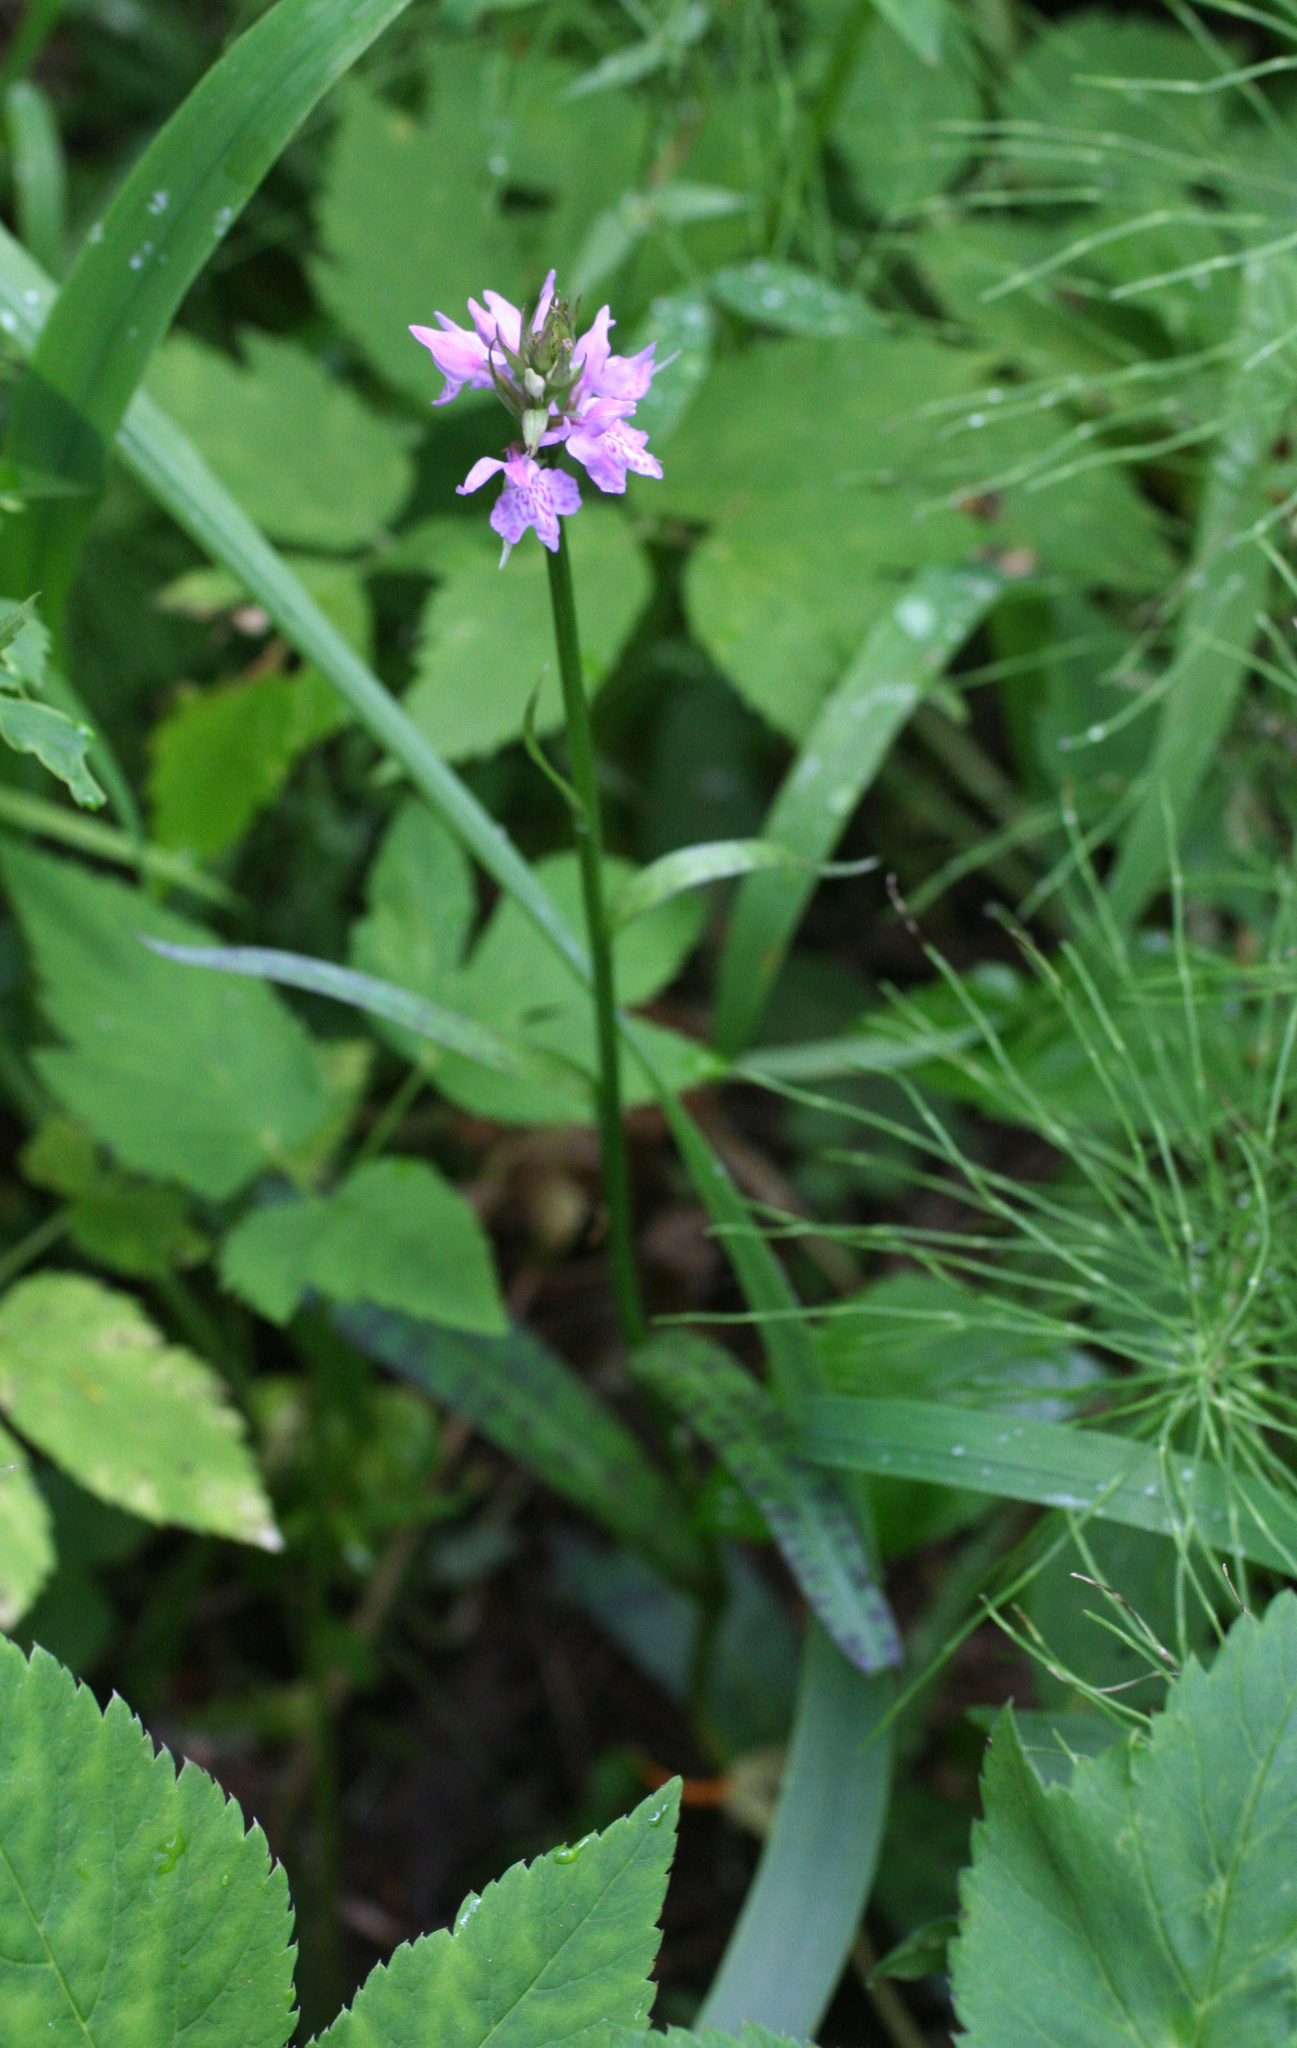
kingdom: Plantae
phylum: Tracheophyta
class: Liliopsida
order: Asparagales
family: Orchidaceae
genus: Dactylorhiza
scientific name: Dactylorhiza maculata
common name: Heath spotted-orchid
